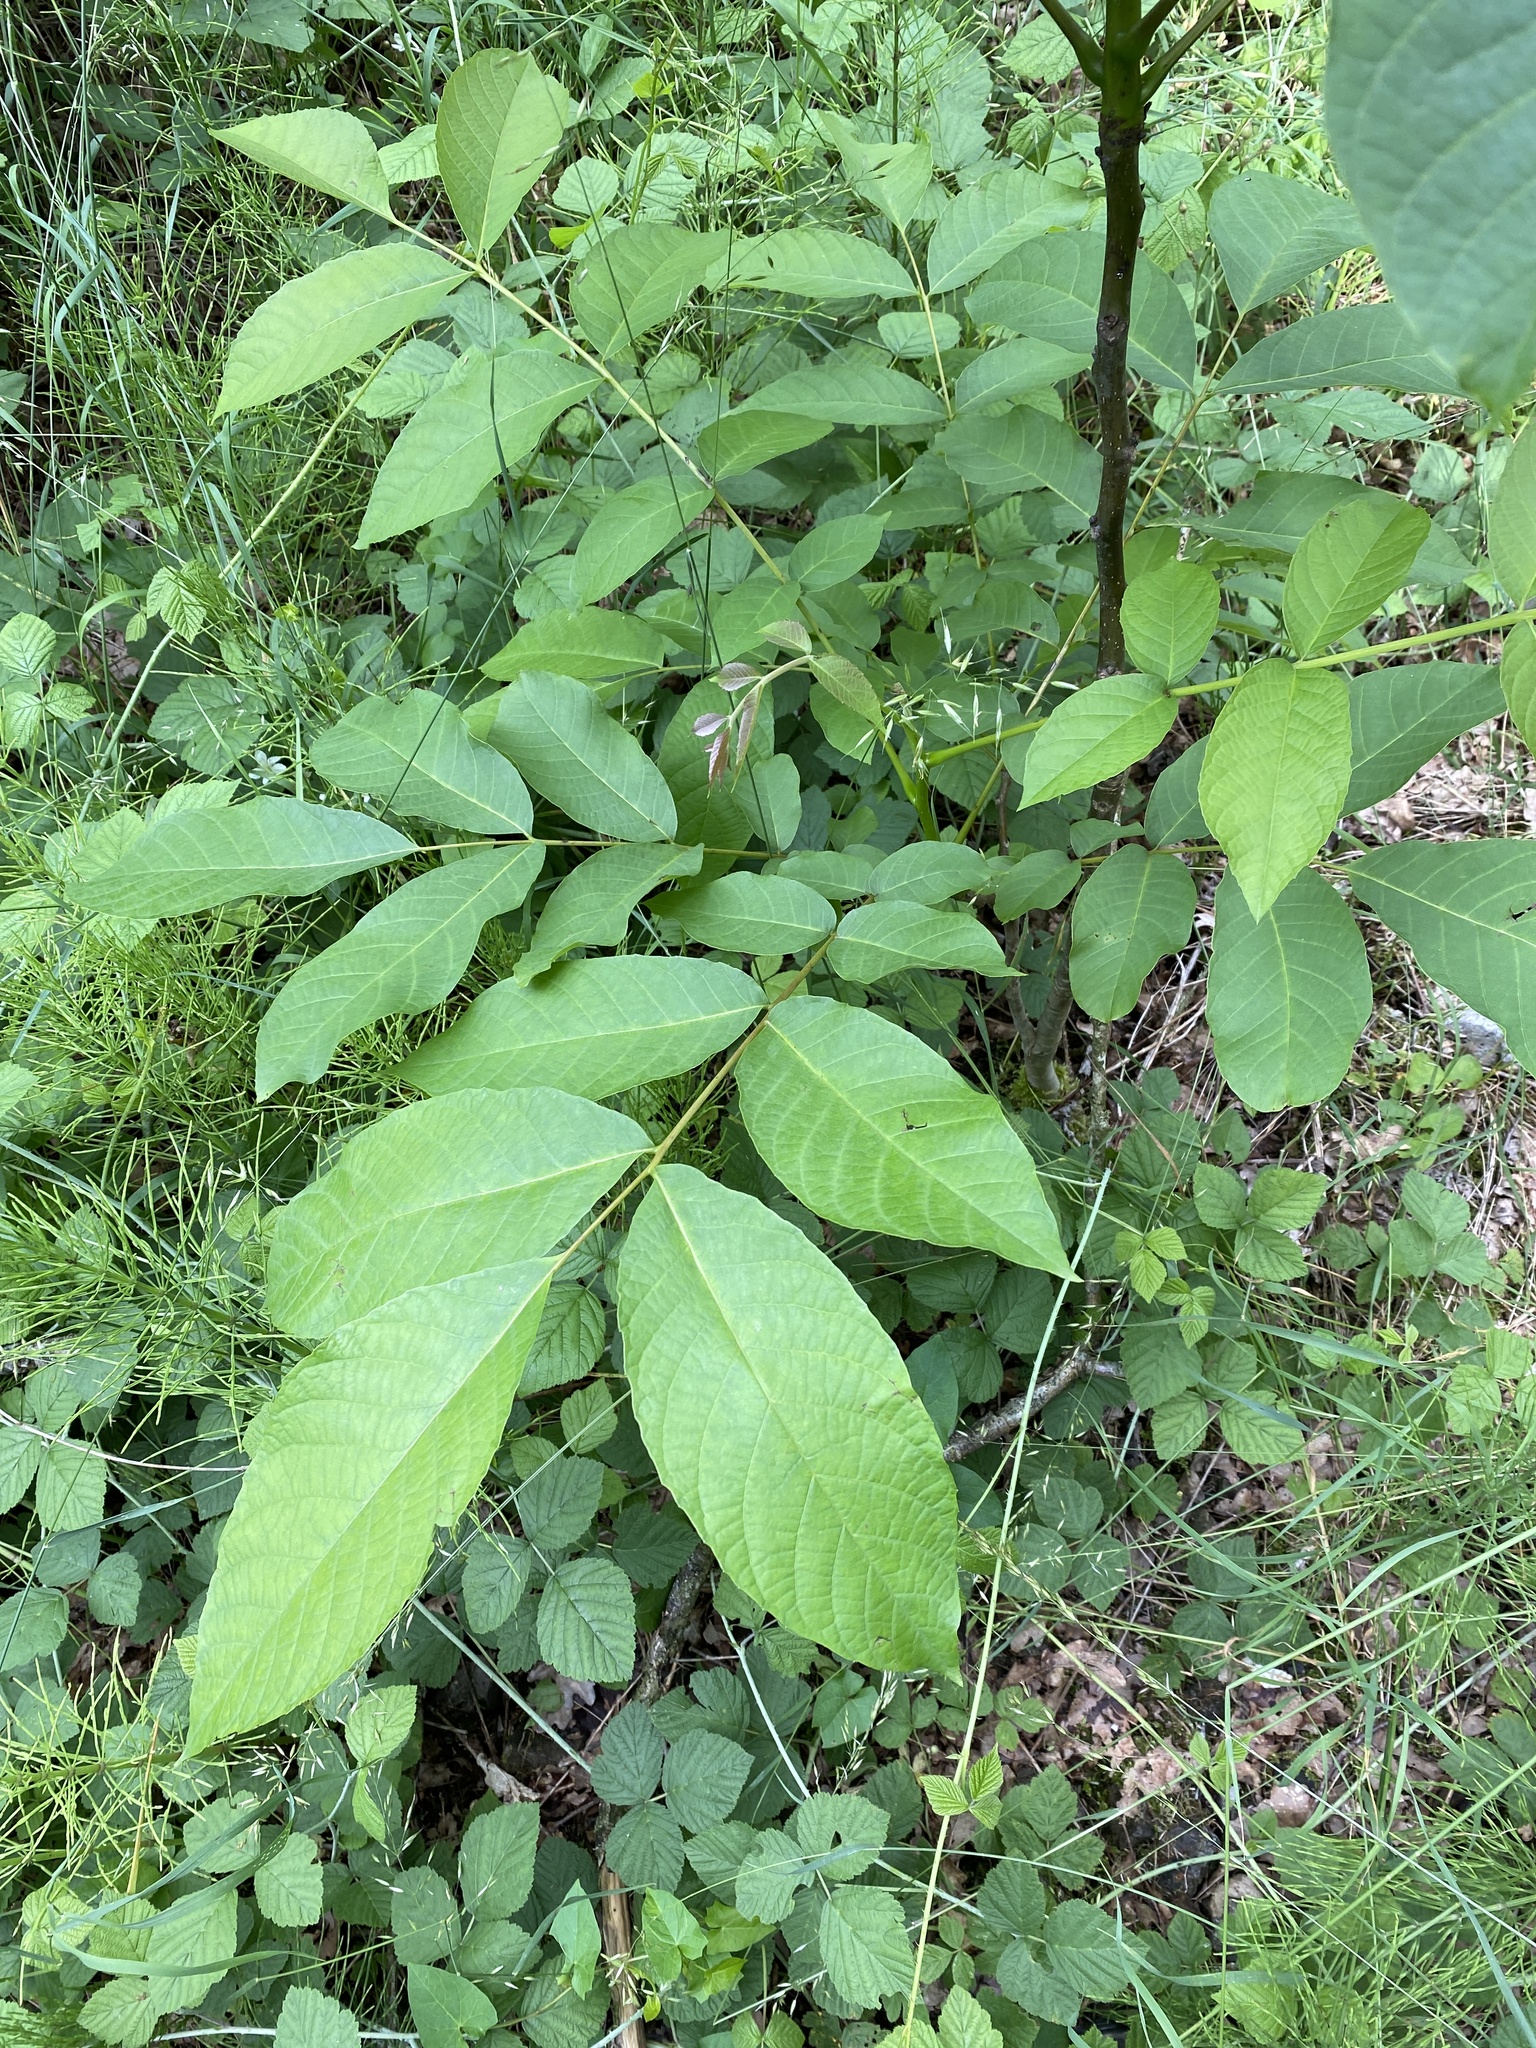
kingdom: Plantae
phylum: Tracheophyta
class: Magnoliopsida
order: Fagales
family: Juglandaceae
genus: Juglans
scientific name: Juglans regia
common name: Walnut
